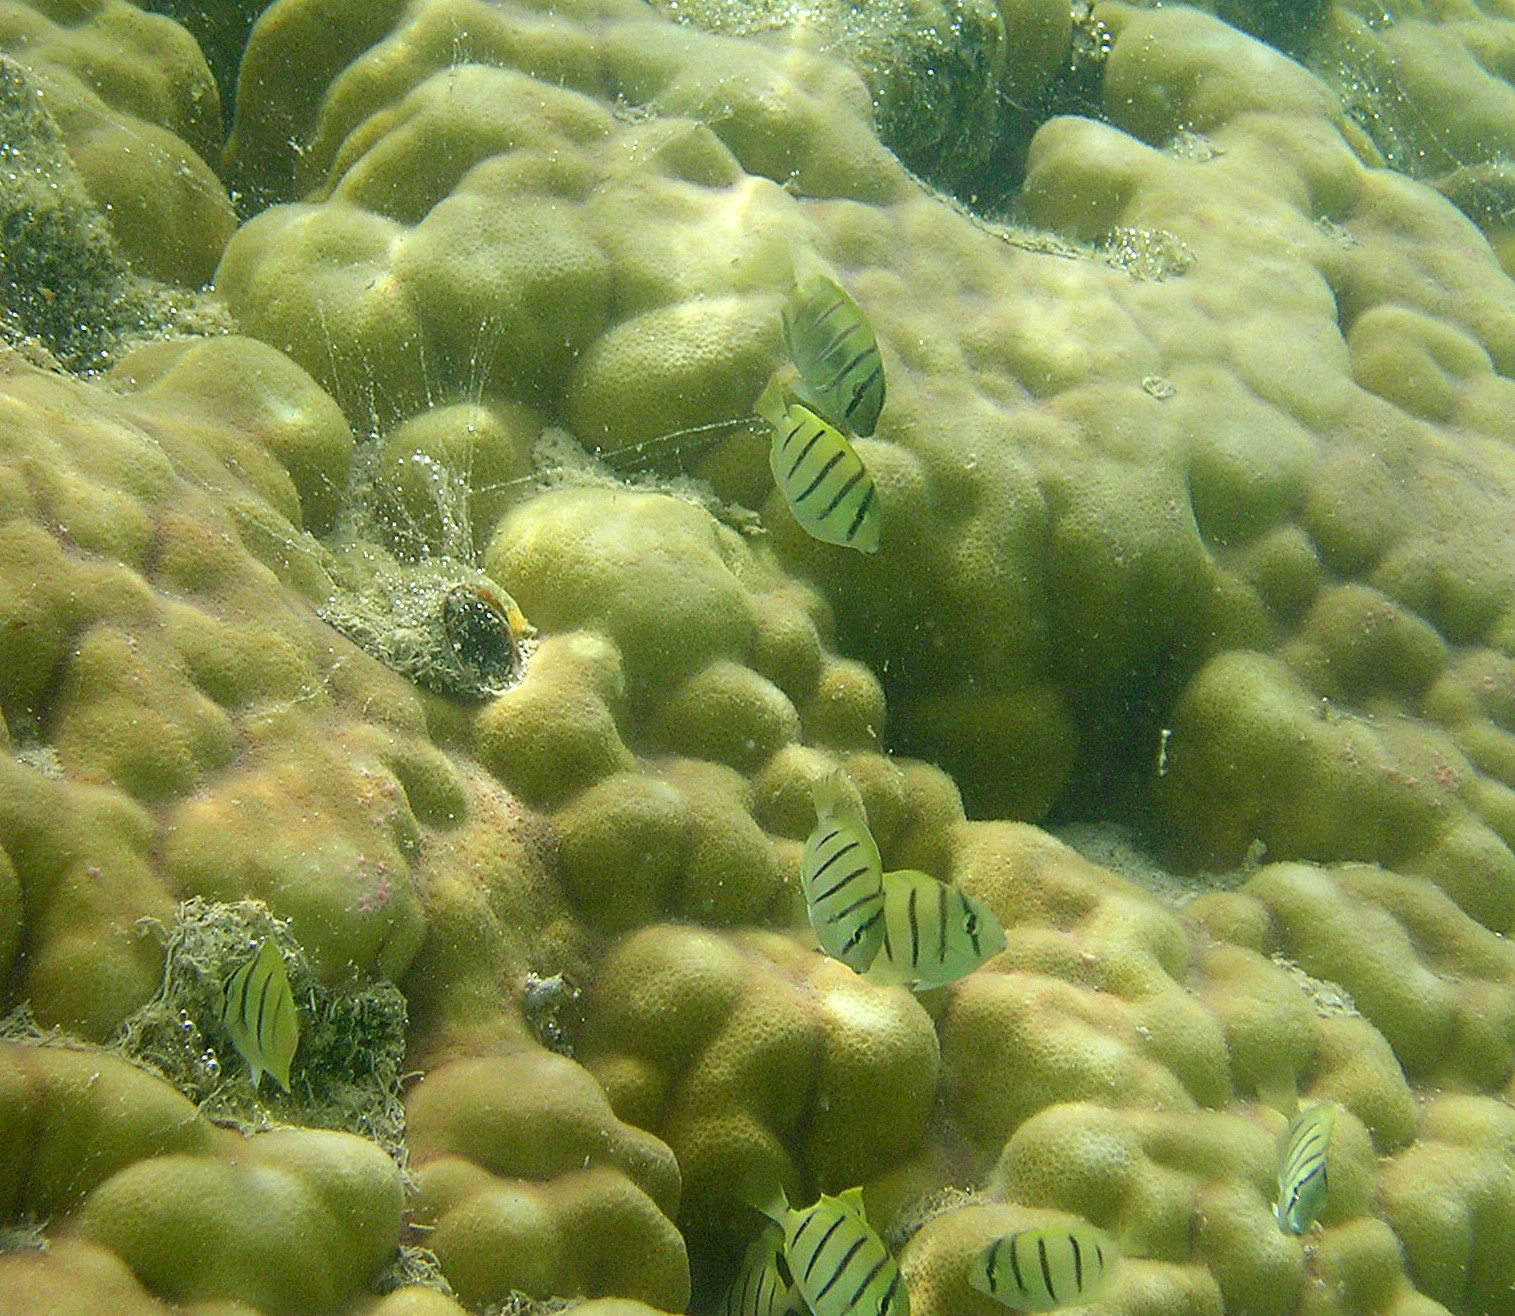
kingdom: Animalia
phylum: Chordata
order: Perciformes
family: Acanthuridae
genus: Acanthurus
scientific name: Acanthurus triostegus
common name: Convict surgeonfish
